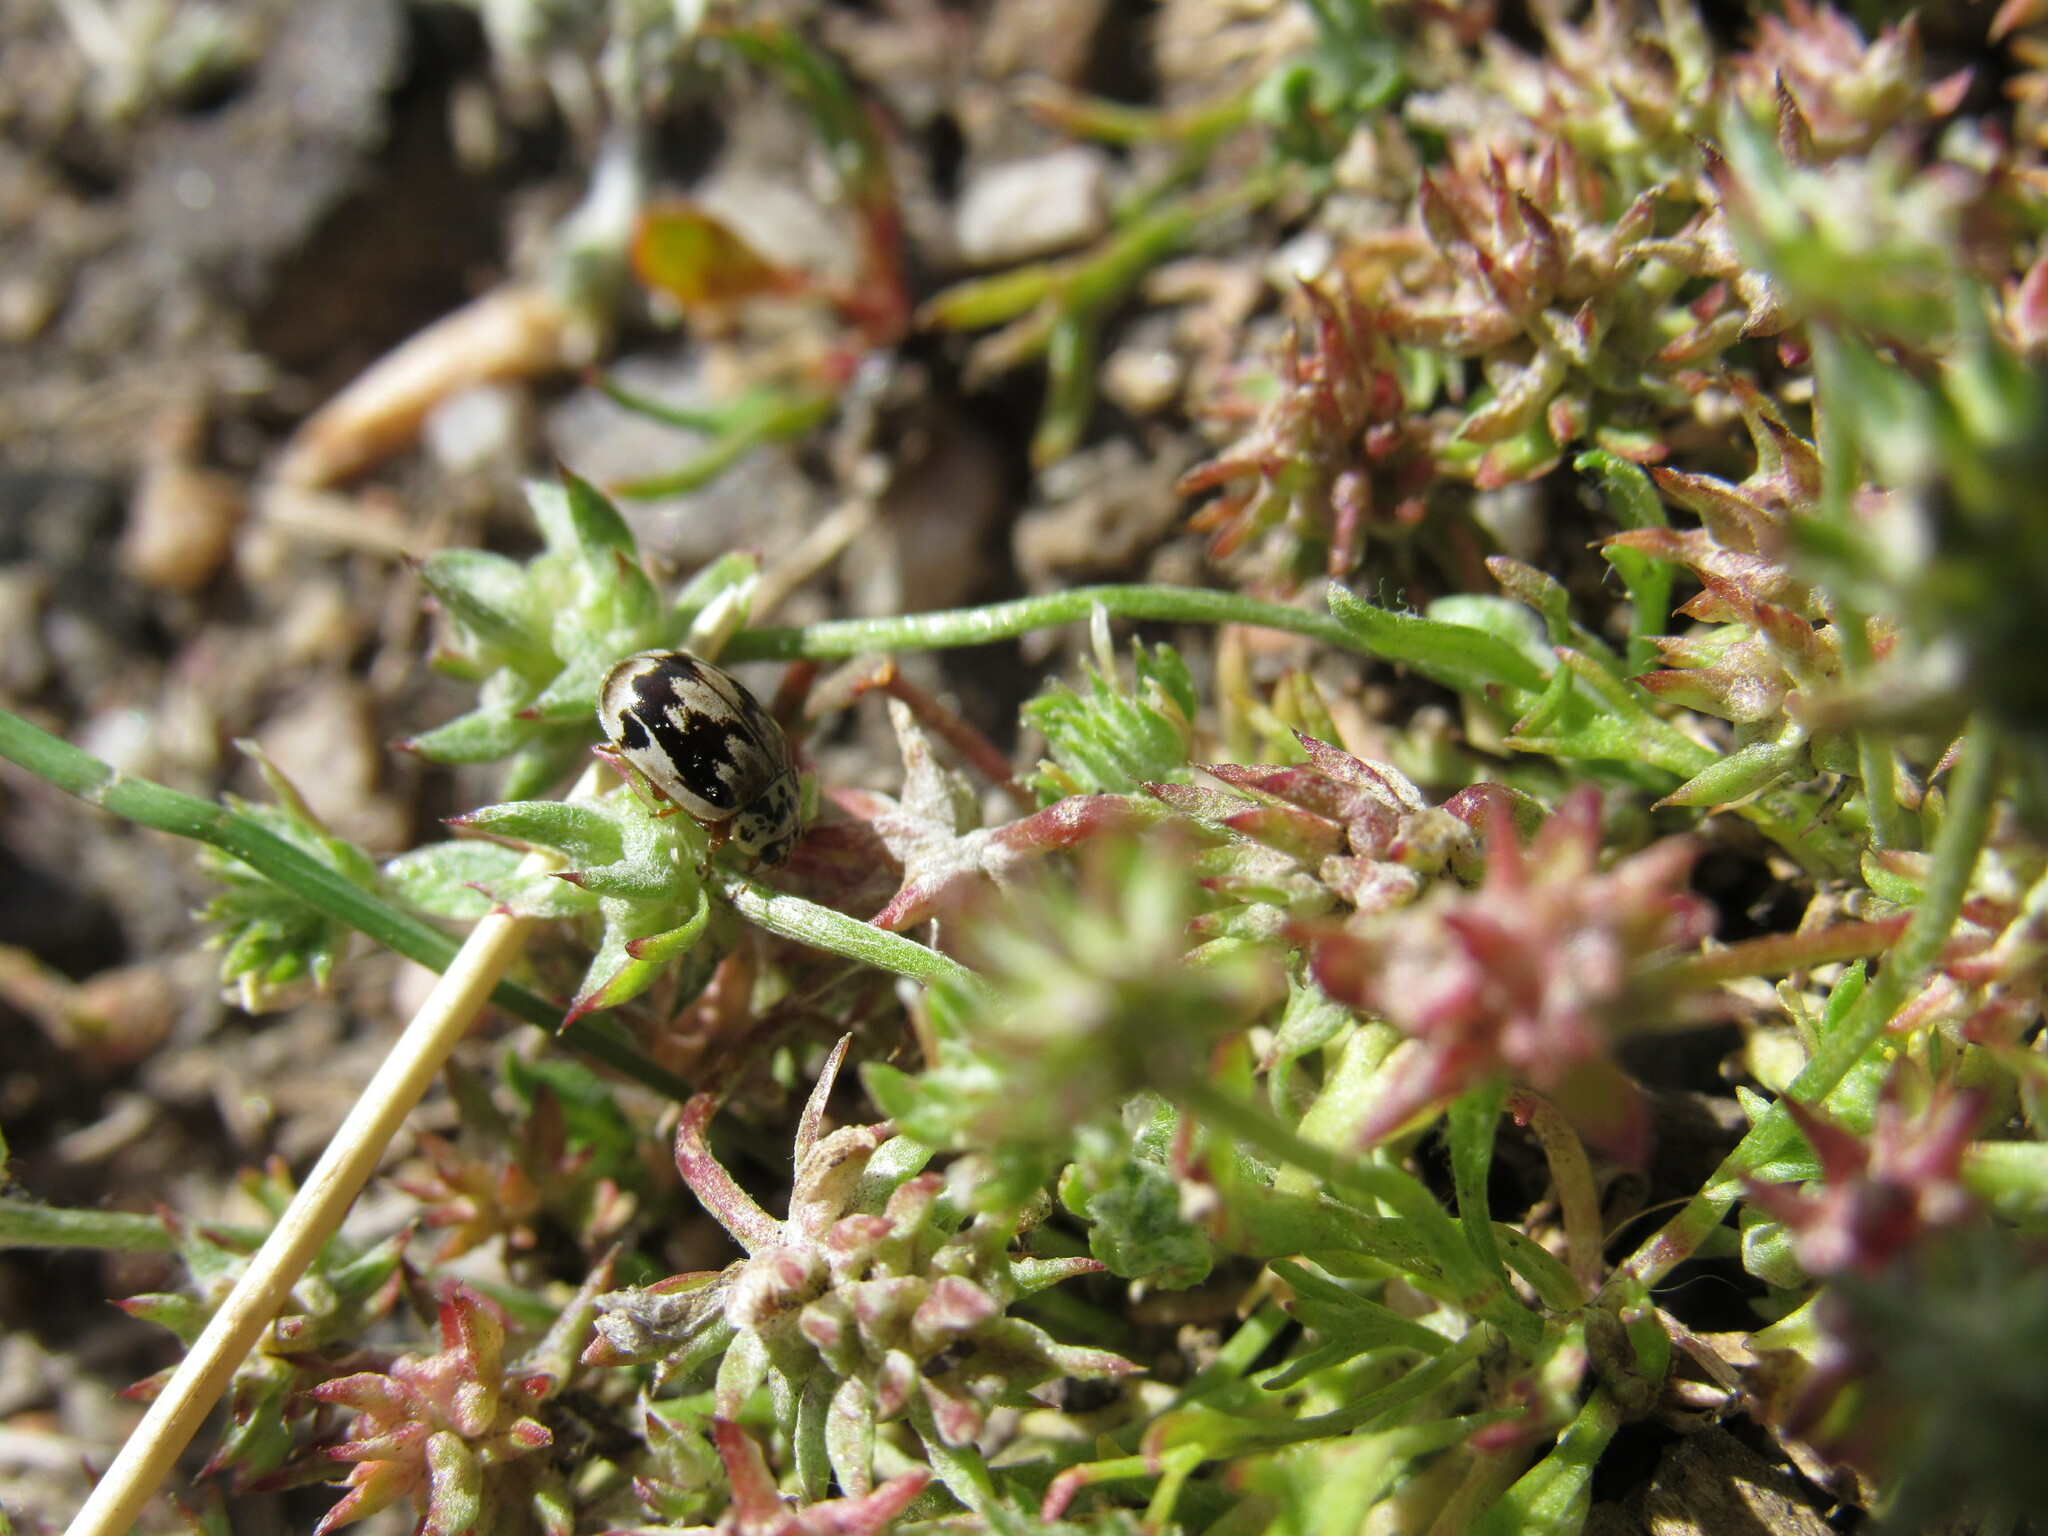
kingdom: Animalia
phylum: Arthropoda
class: Insecta
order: Coleoptera
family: Coccinellidae
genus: Mulsantina
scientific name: Mulsantina picta
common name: Painted ladybird
